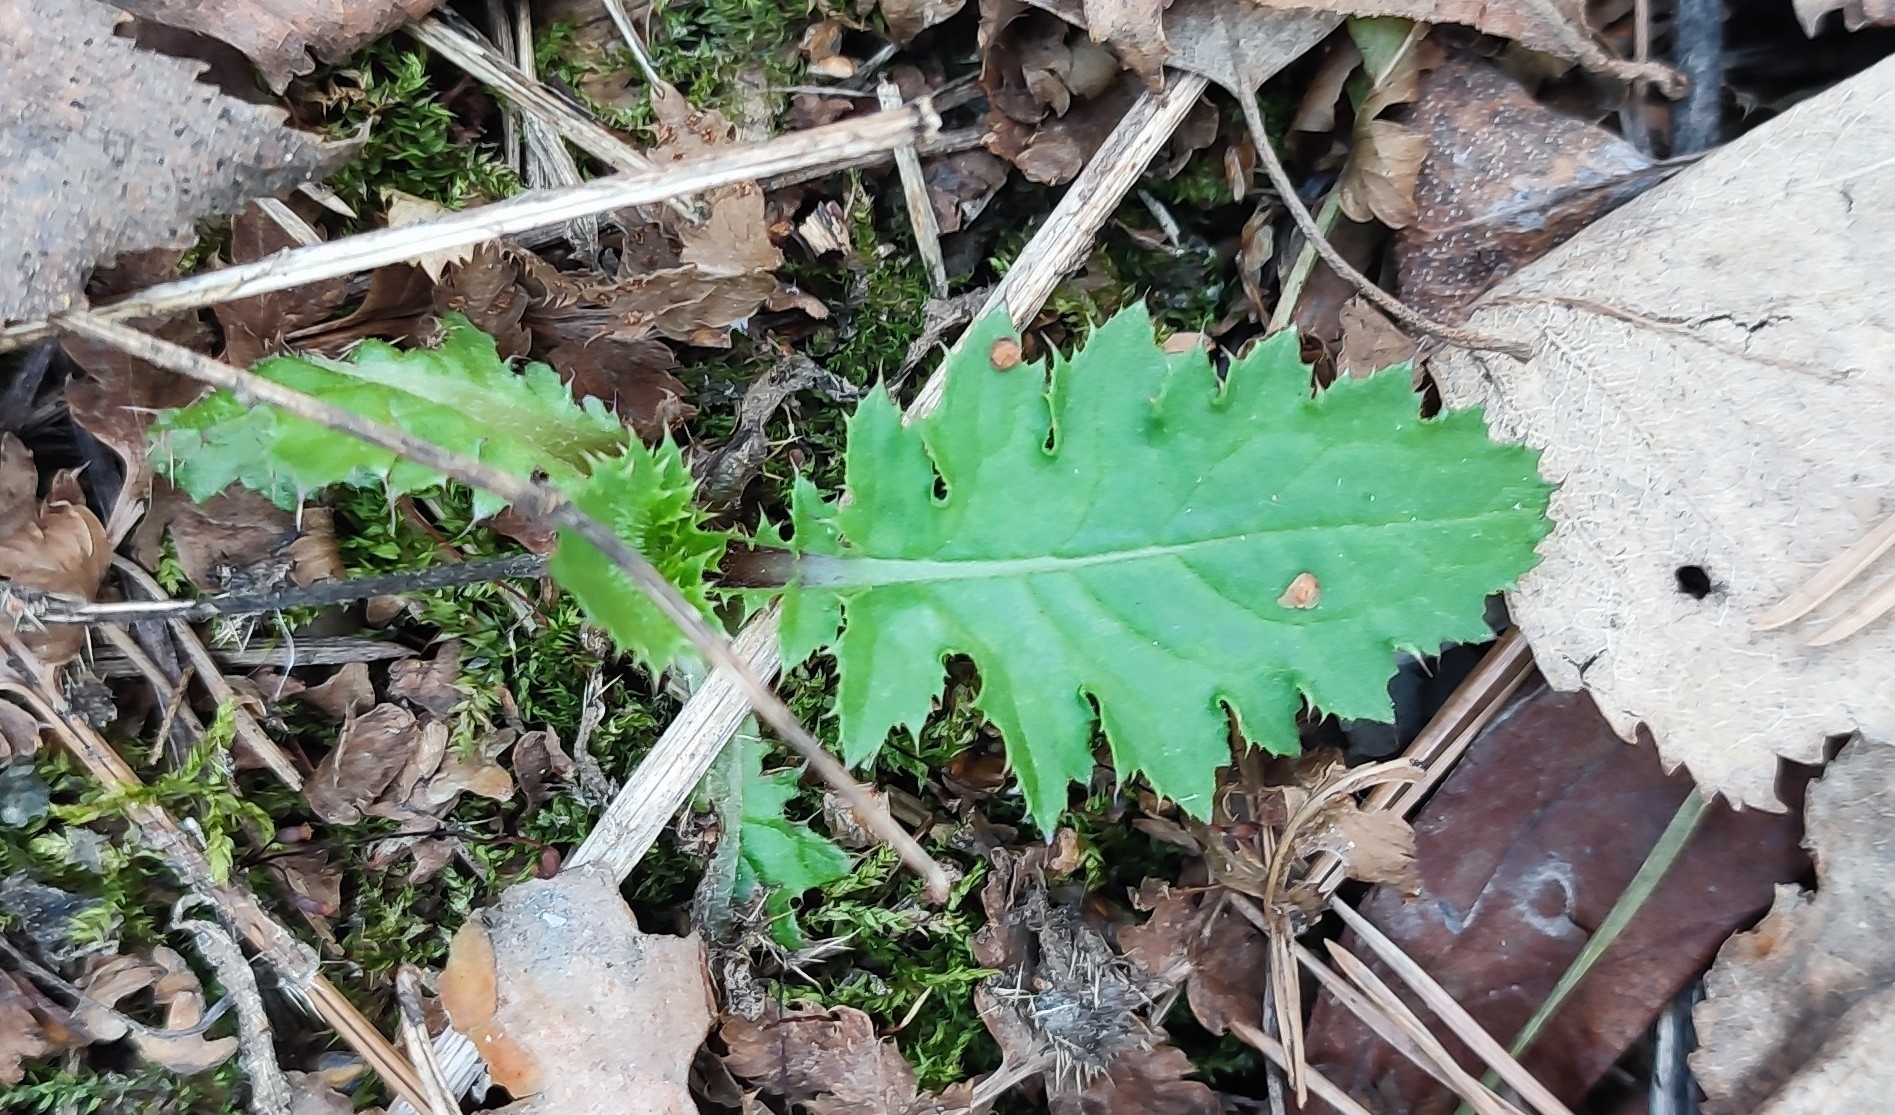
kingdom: Plantae
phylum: Tracheophyta
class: Magnoliopsida
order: Asterales
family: Asteraceae
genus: Carduus
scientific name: Carduus crispus
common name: Welted thistle
